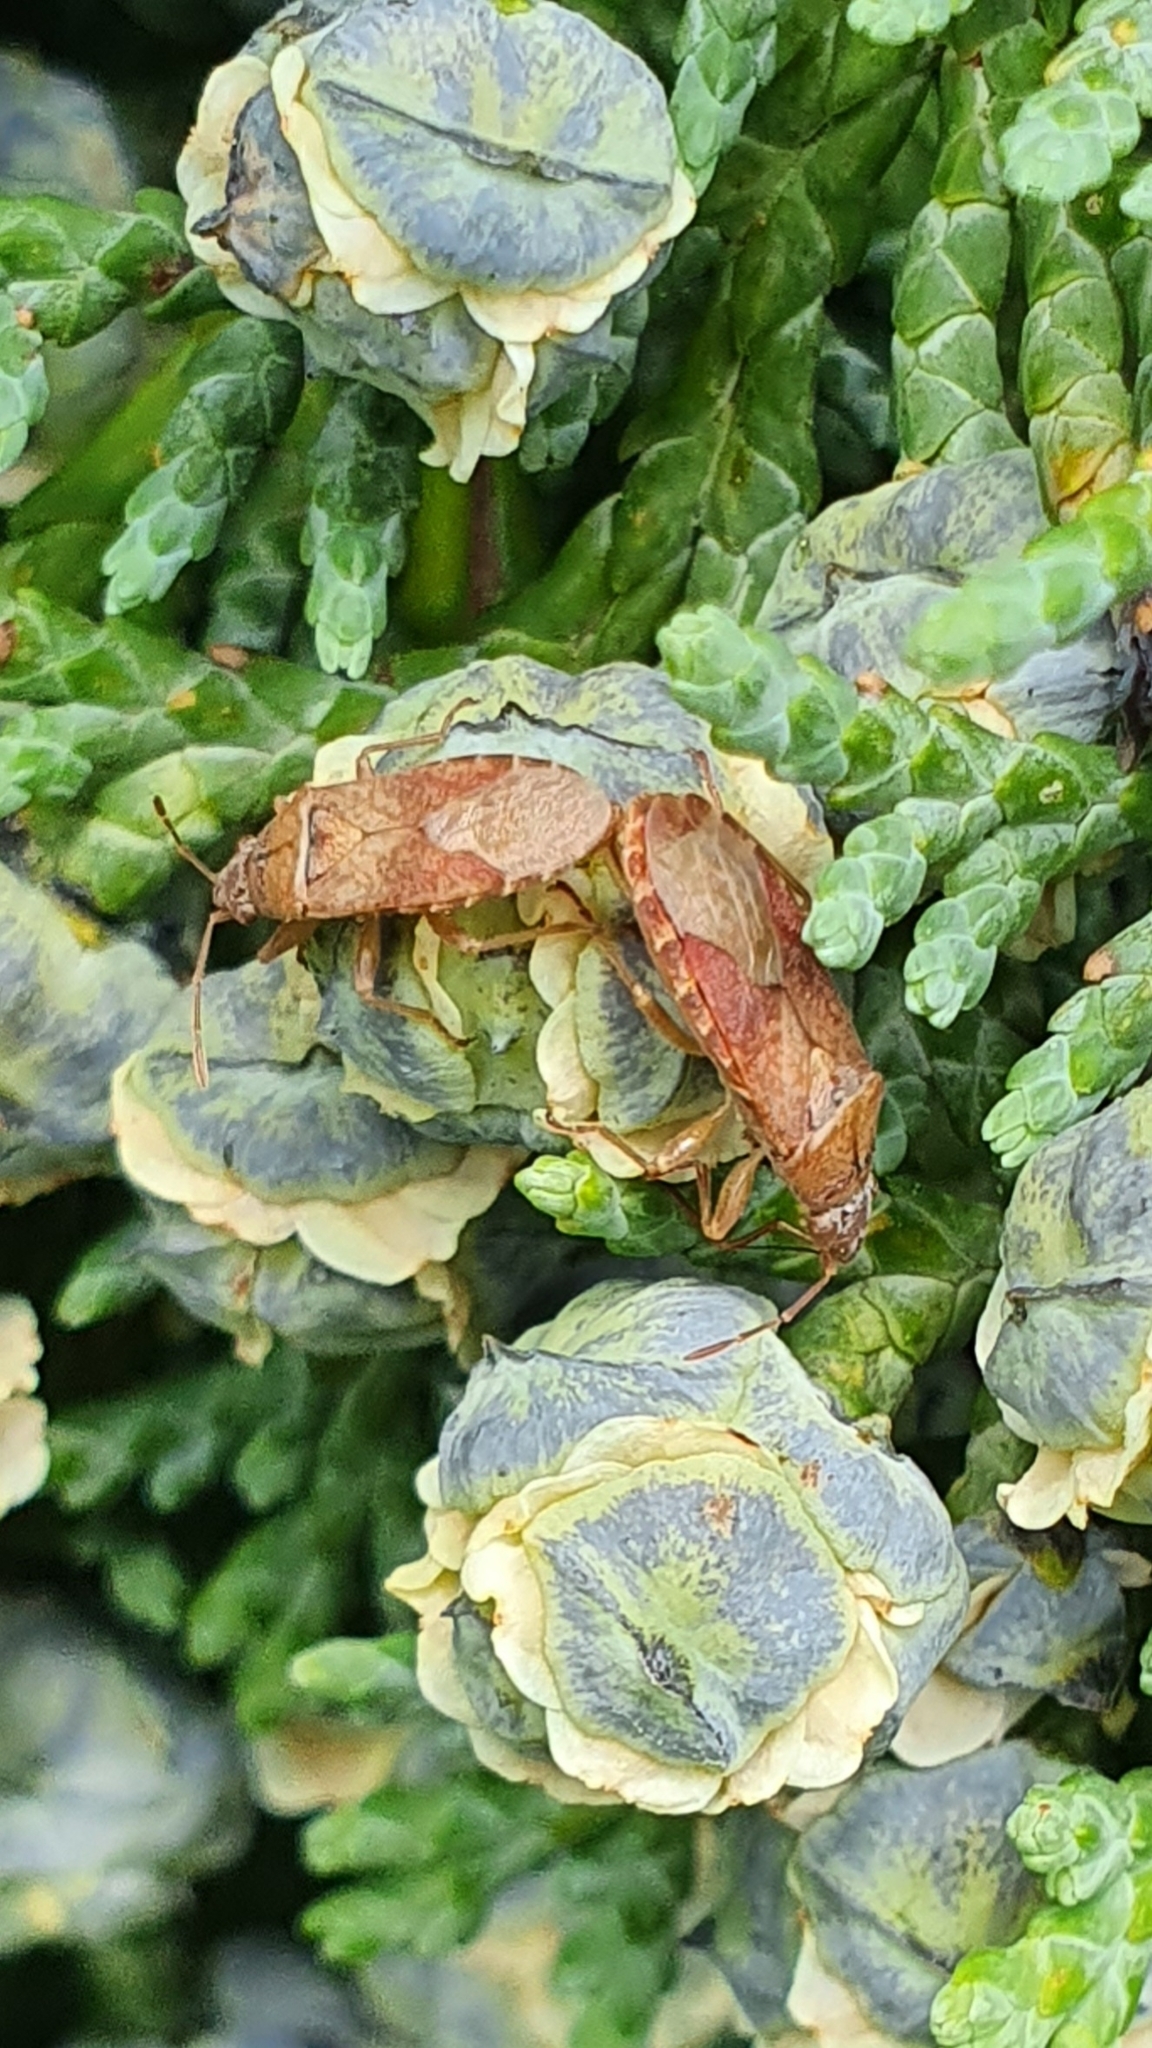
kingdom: Animalia
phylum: Arthropoda
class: Insecta
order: Hemiptera
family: Lygaeidae
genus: Orsillus
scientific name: Orsillus depressus
